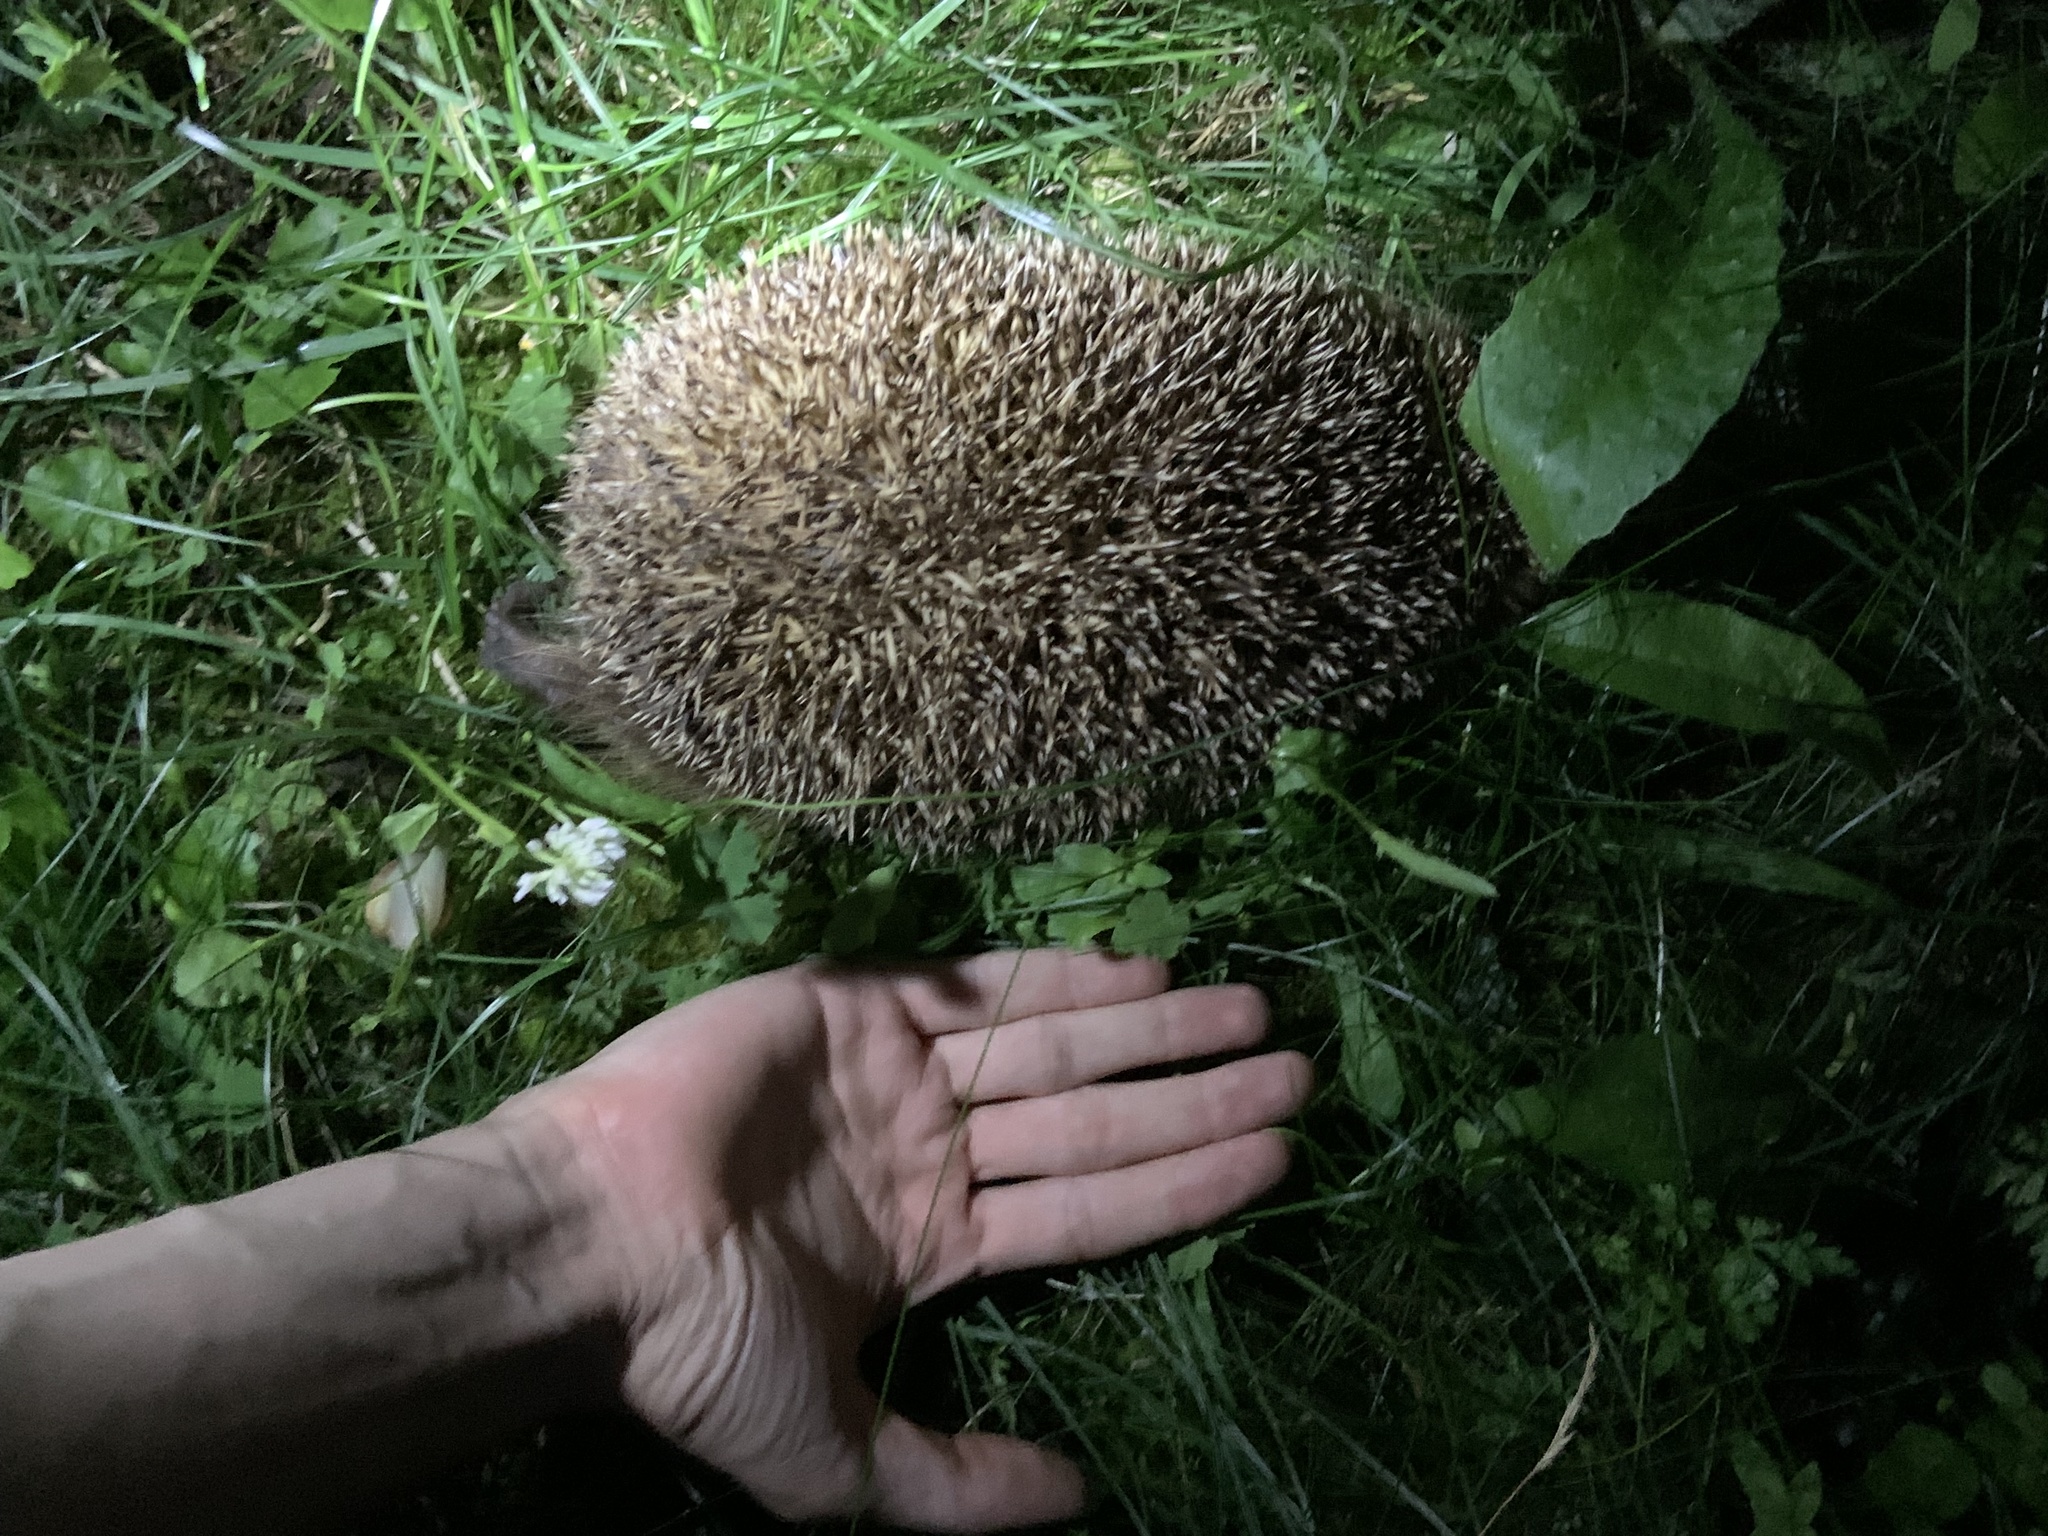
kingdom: Animalia
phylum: Chordata
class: Mammalia
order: Erinaceomorpha
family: Erinaceidae
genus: Erinaceus
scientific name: Erinaceus europaeus
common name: West european hedgehog
